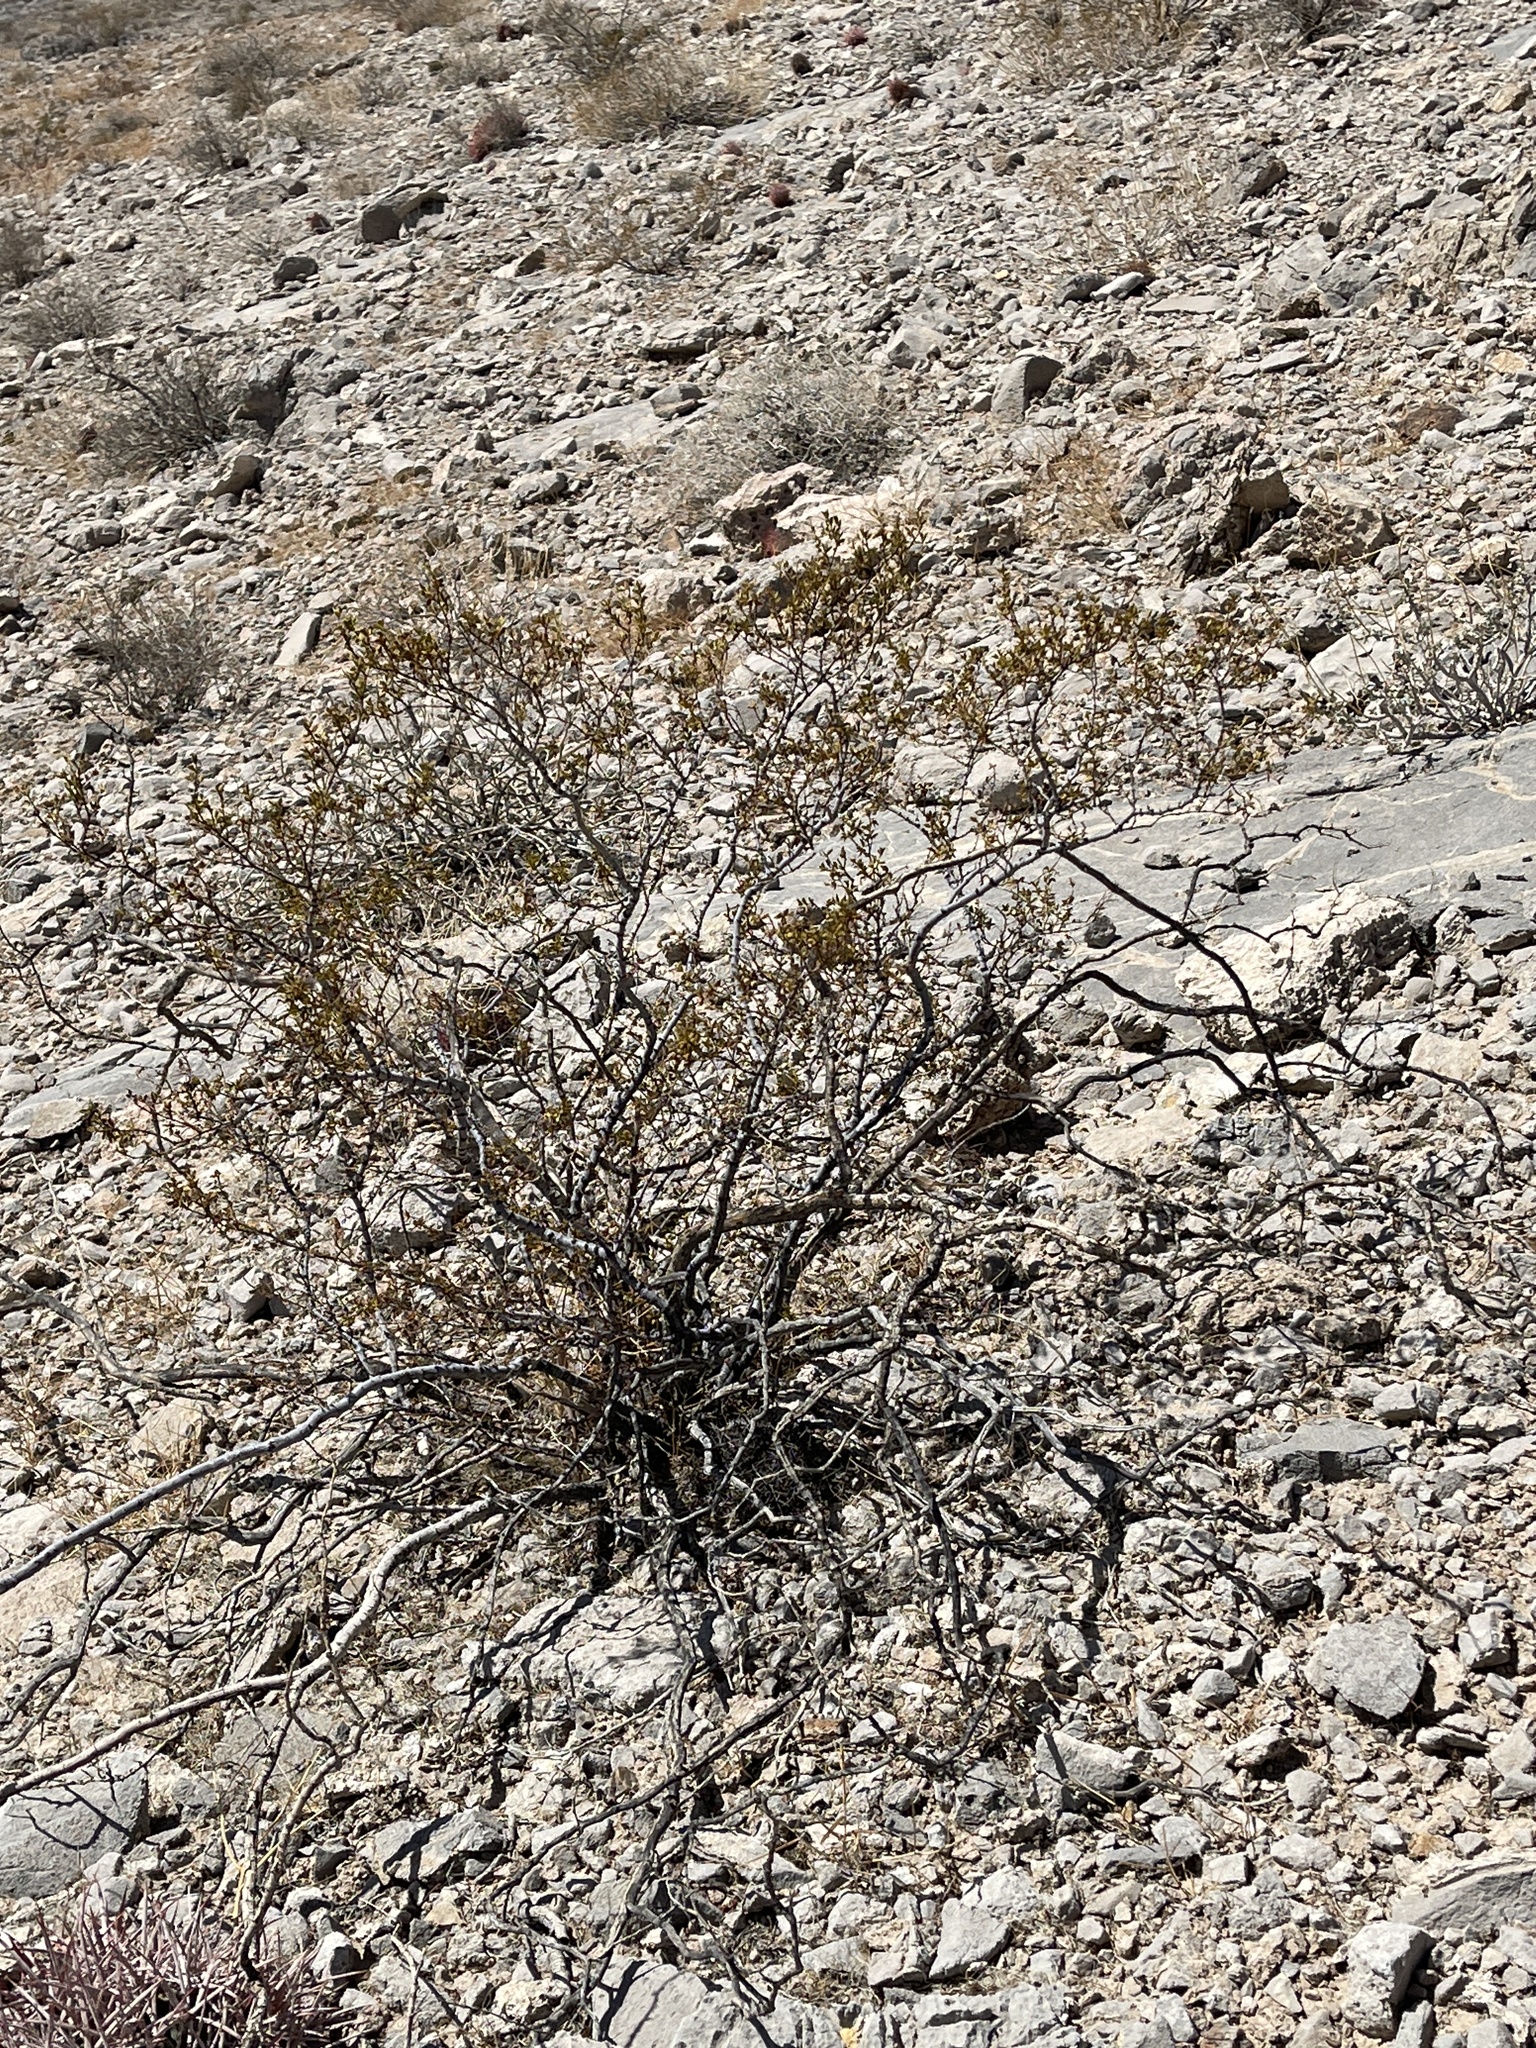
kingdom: Plantae
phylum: Tracheophyta
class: Magnoliopsida
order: Zygophyllales
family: Zygophyllaceae
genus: Larrea
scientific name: Larrea tridentata
